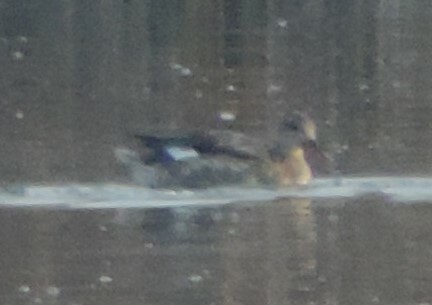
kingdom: Animalia
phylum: Chordata
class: Aves
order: Anseriformes
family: Anatidae
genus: Mareca
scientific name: Mareca strepera
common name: Gadwall
